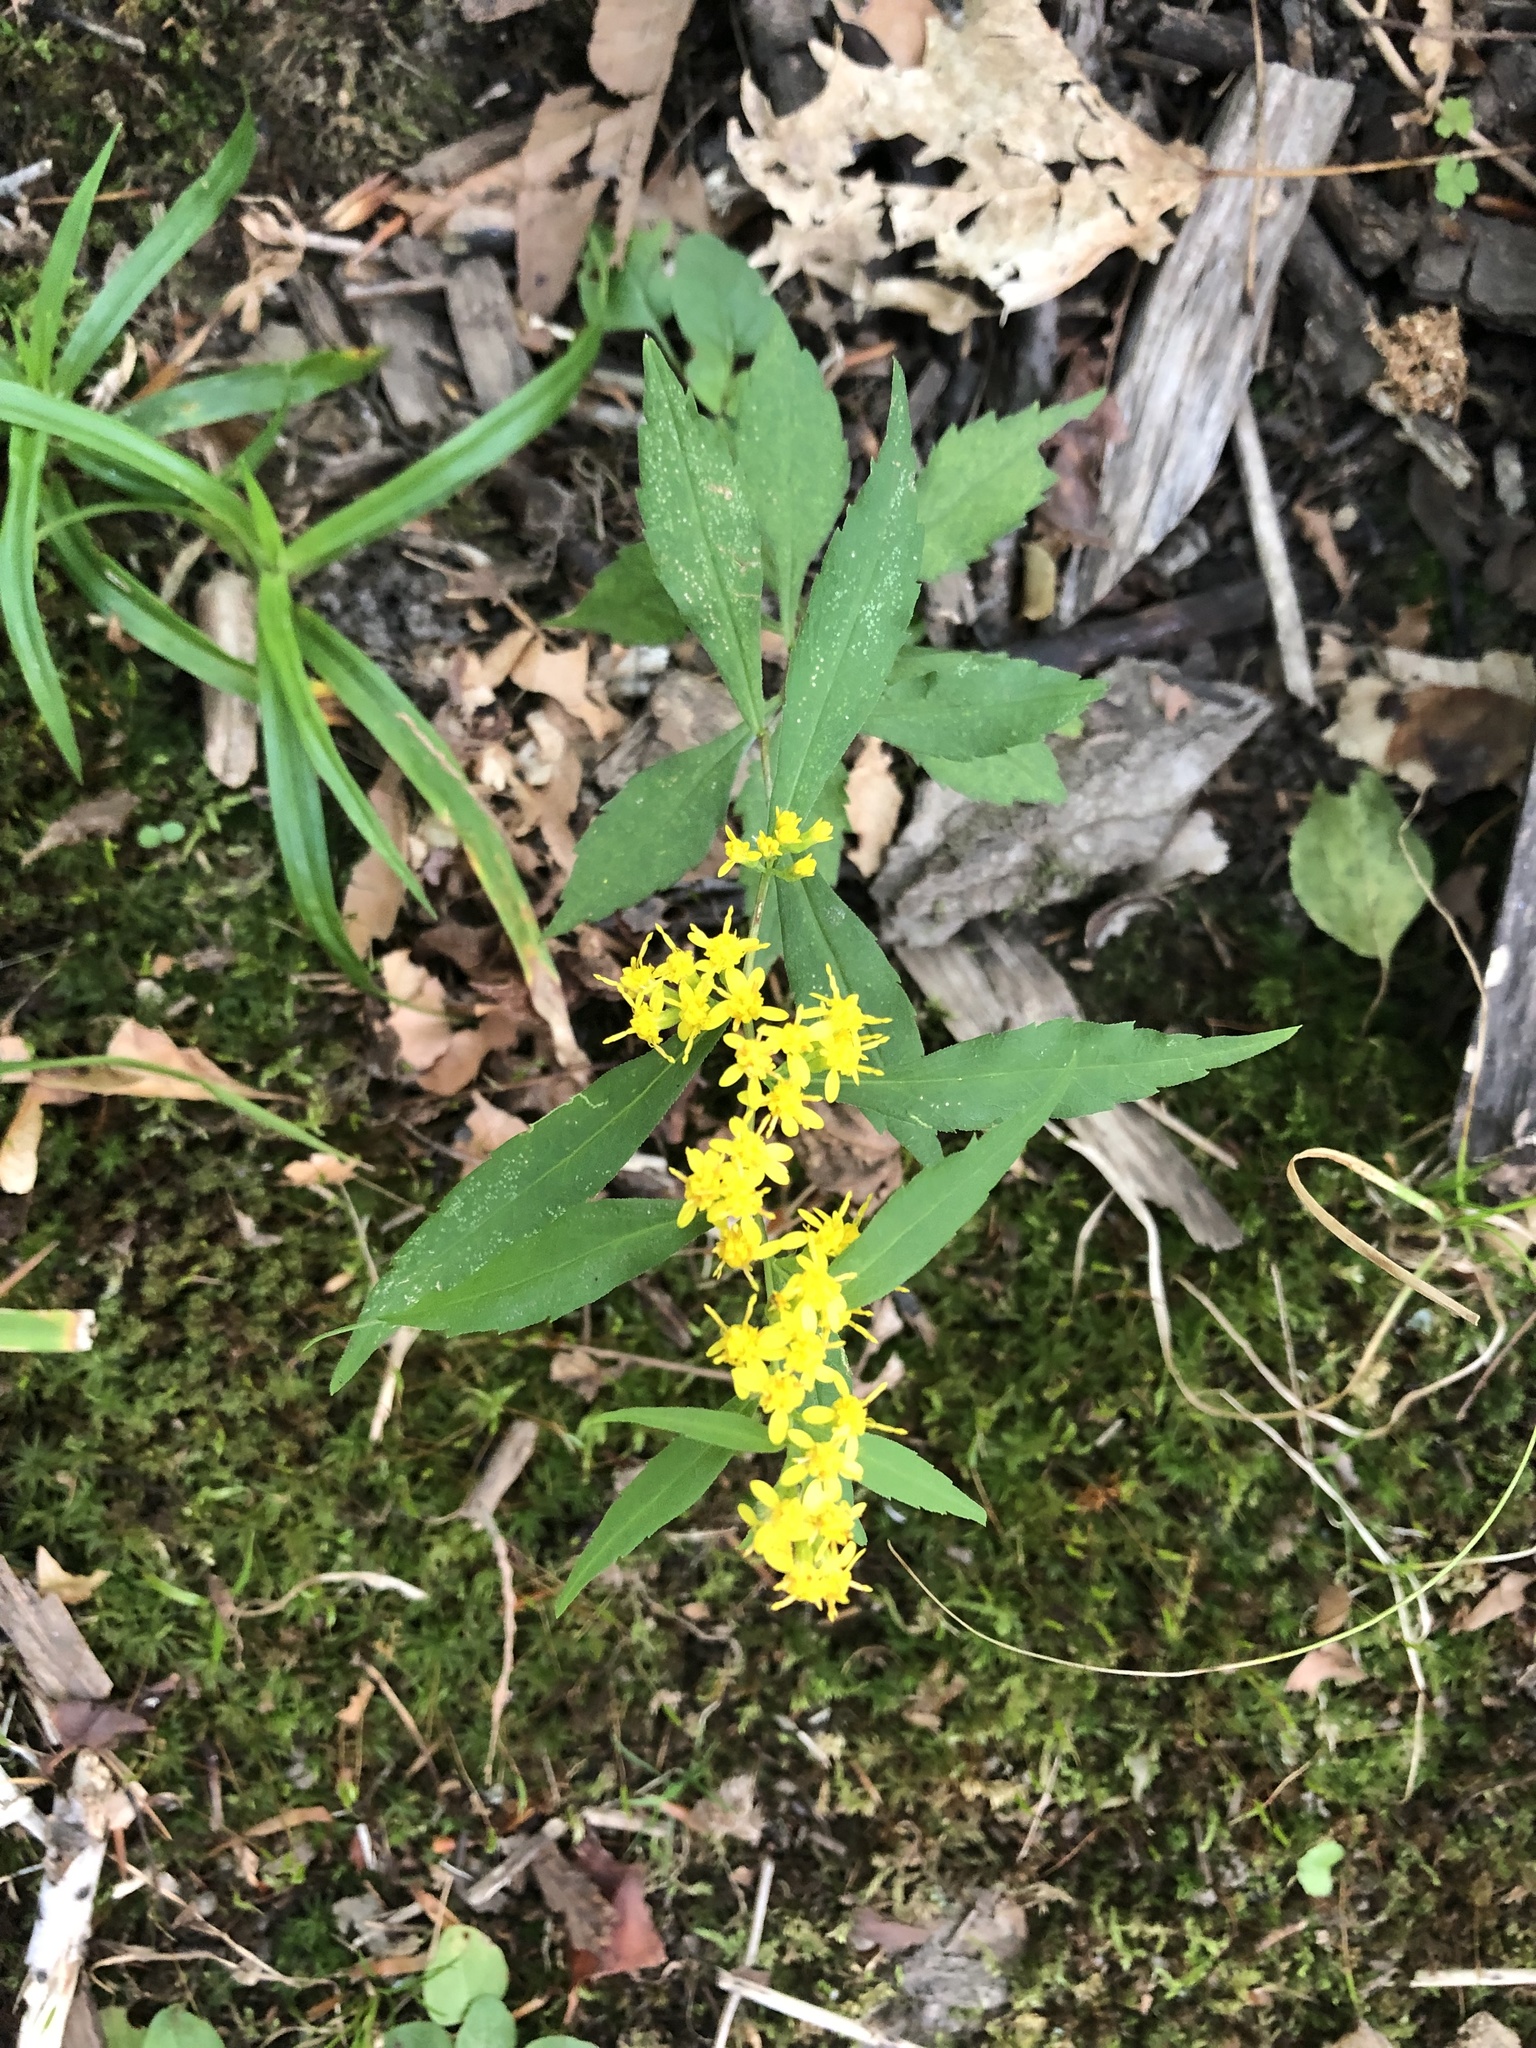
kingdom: Plantae
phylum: Tracheophyta
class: Magnoliopsida
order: Asterales
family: Asteraceae
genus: Solidago
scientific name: Solidago caesia
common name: Woodland goldenrod
